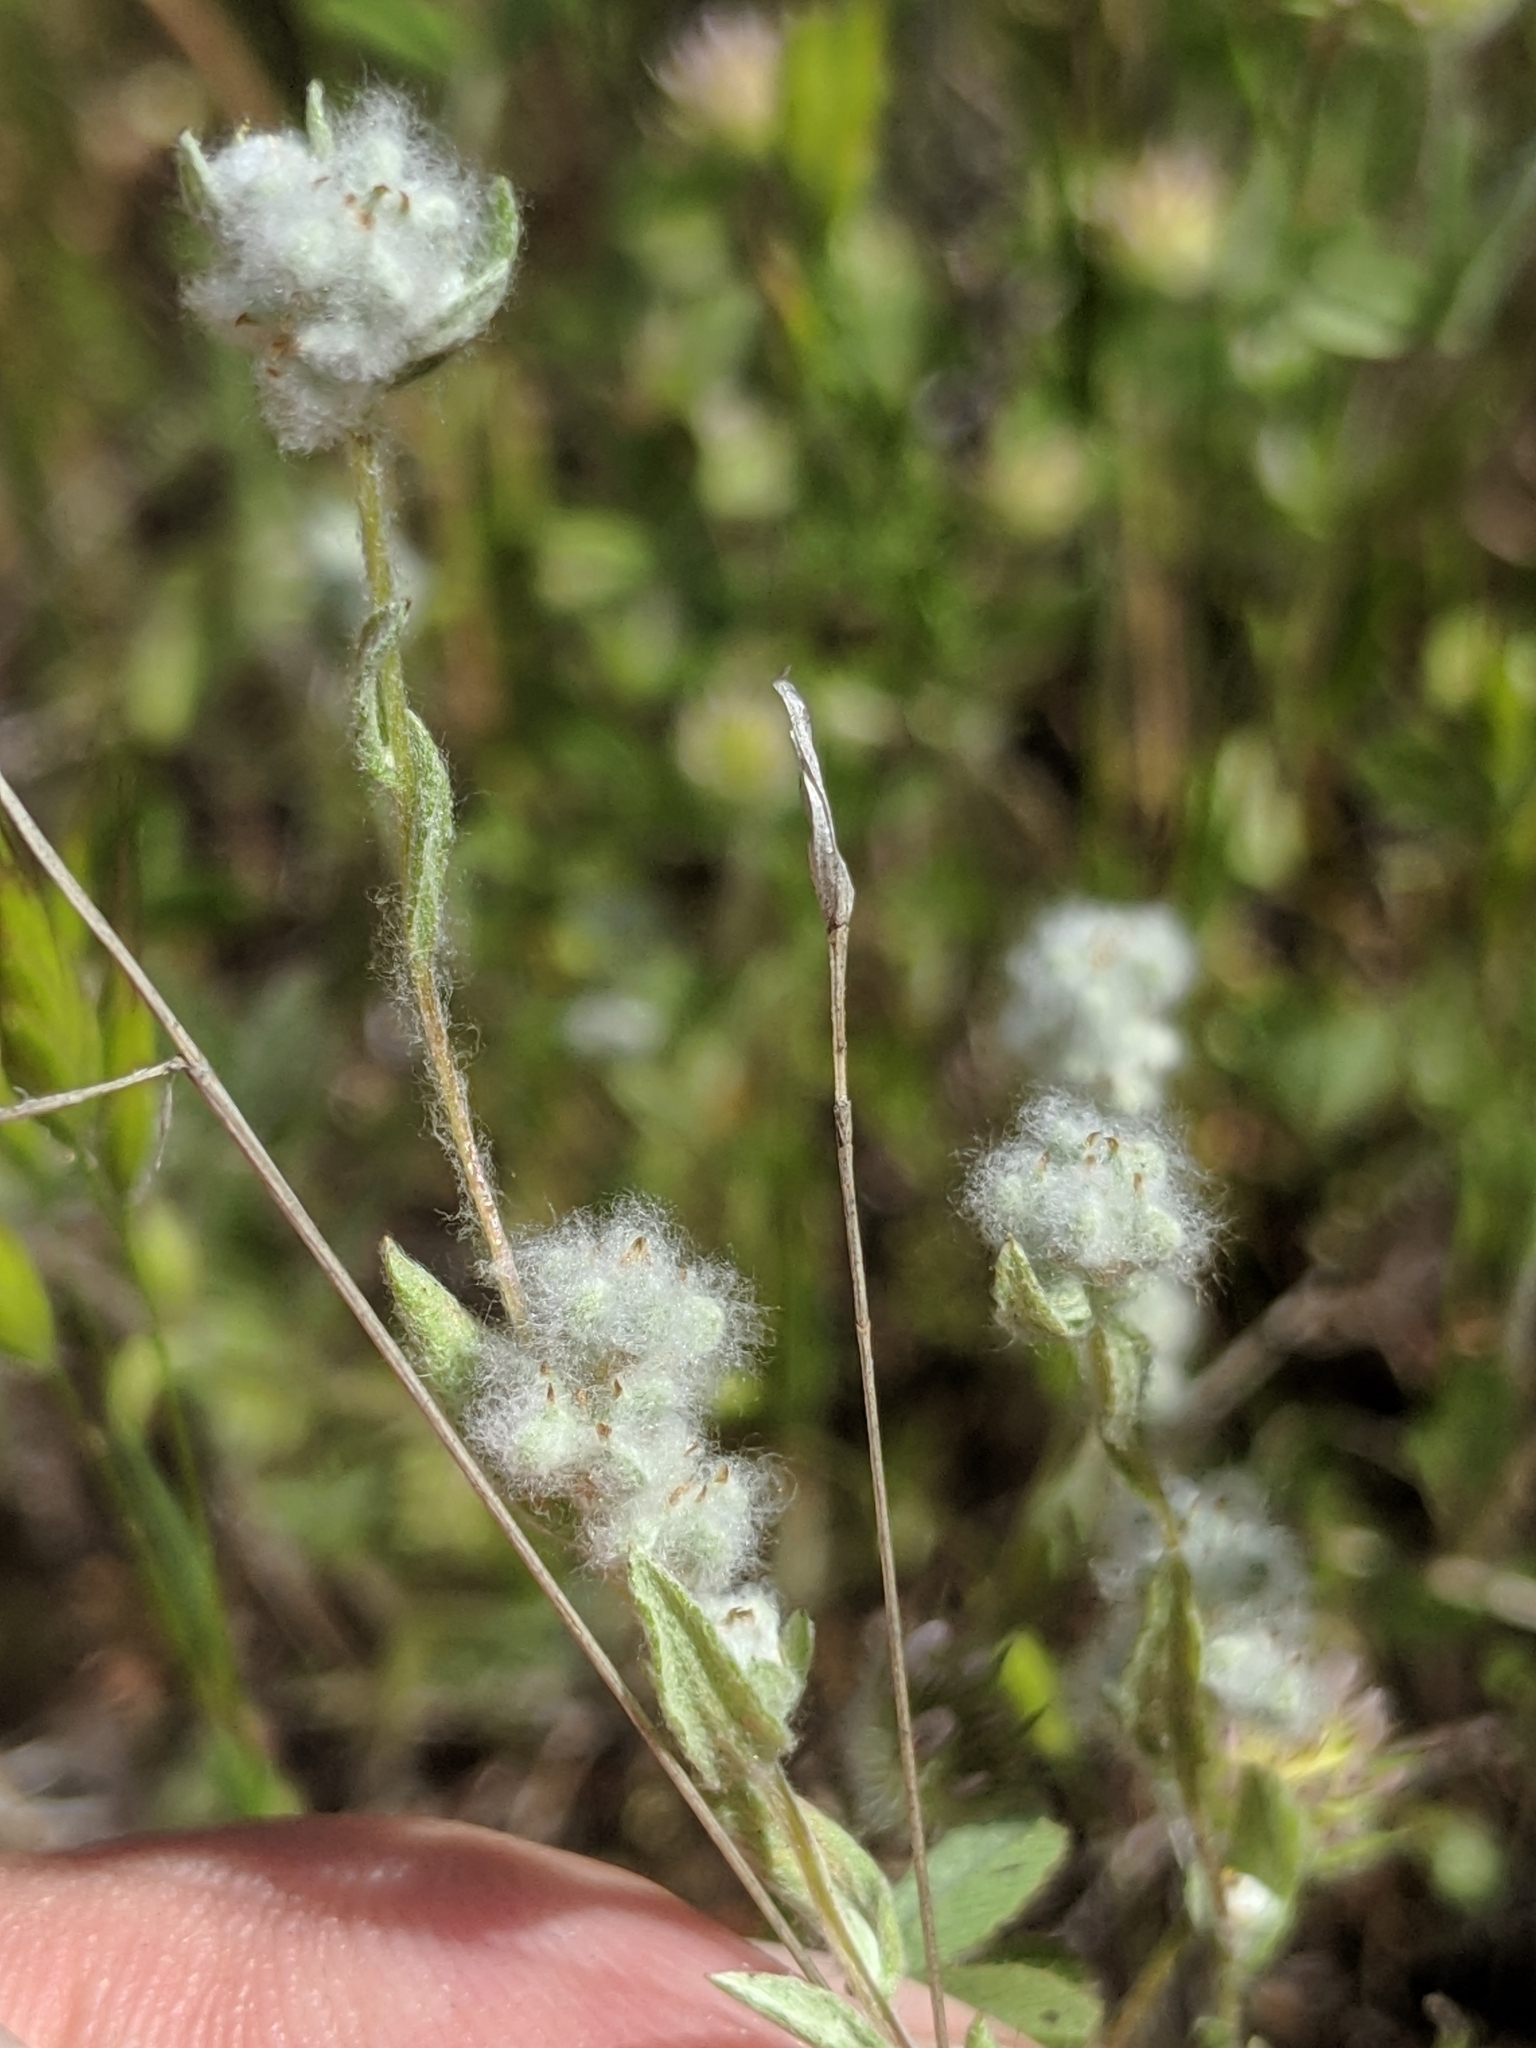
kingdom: Plantae
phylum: Tracheophyta
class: Magnoliopsida
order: Asterales
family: Asteraceae
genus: Bombycilaena
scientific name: Bombycilaena californica
